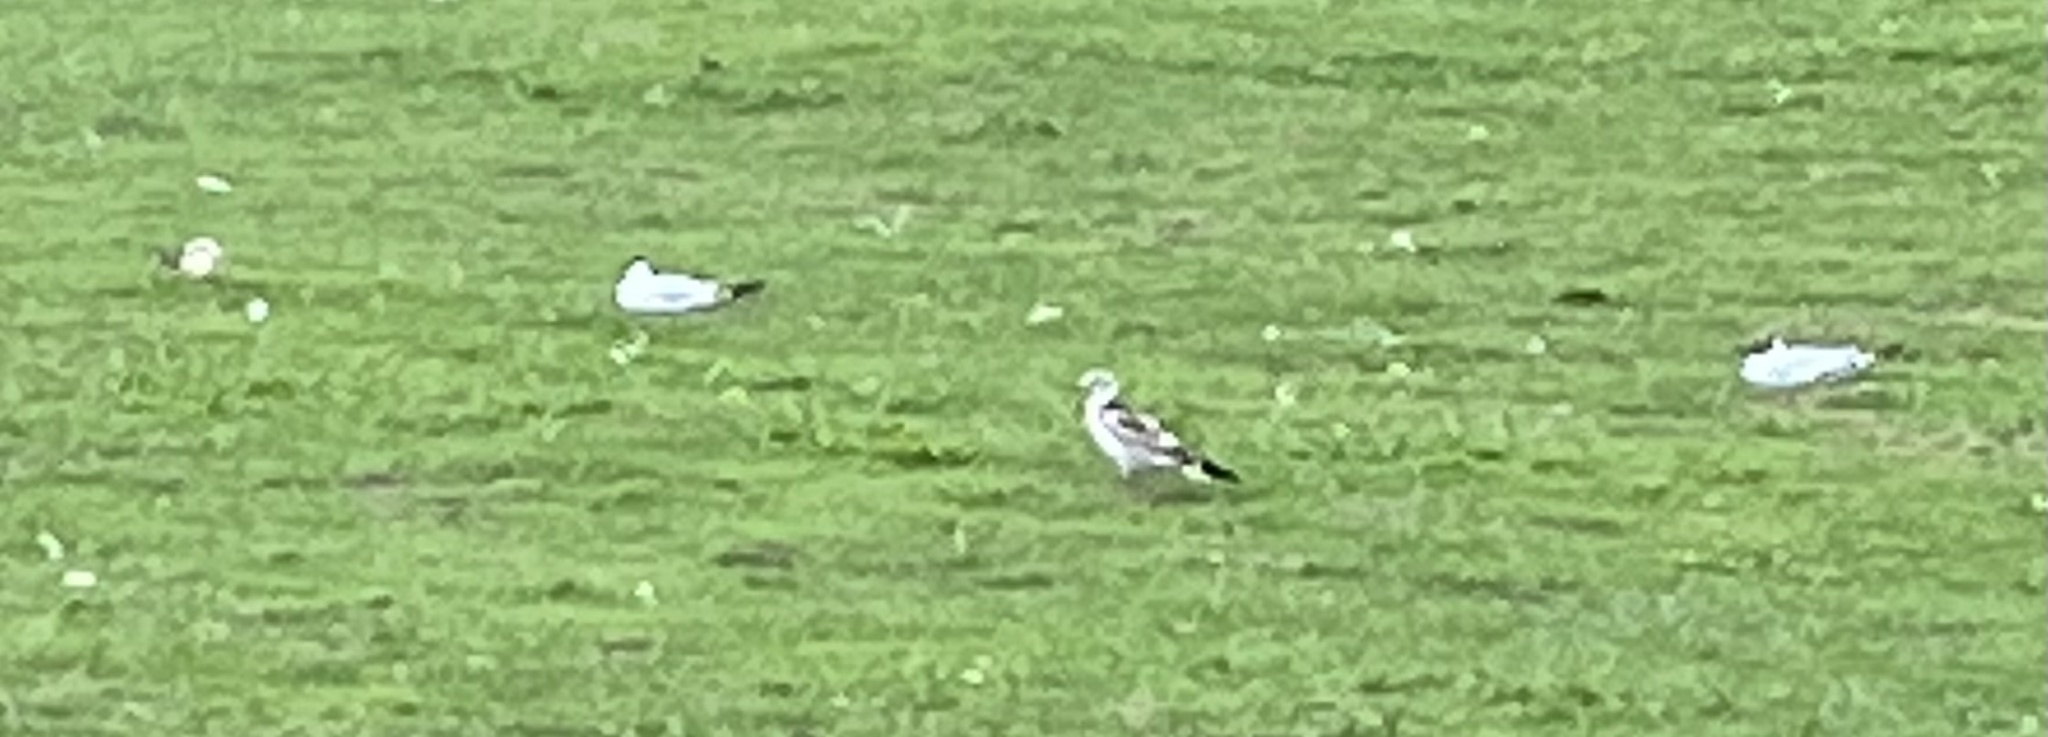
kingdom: Animalia
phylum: Chordata
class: Aves
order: Charadriiformes
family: Laridae
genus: Chroicocephalus
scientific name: Chroicocephalus ridibundus
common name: Black-headed gull
